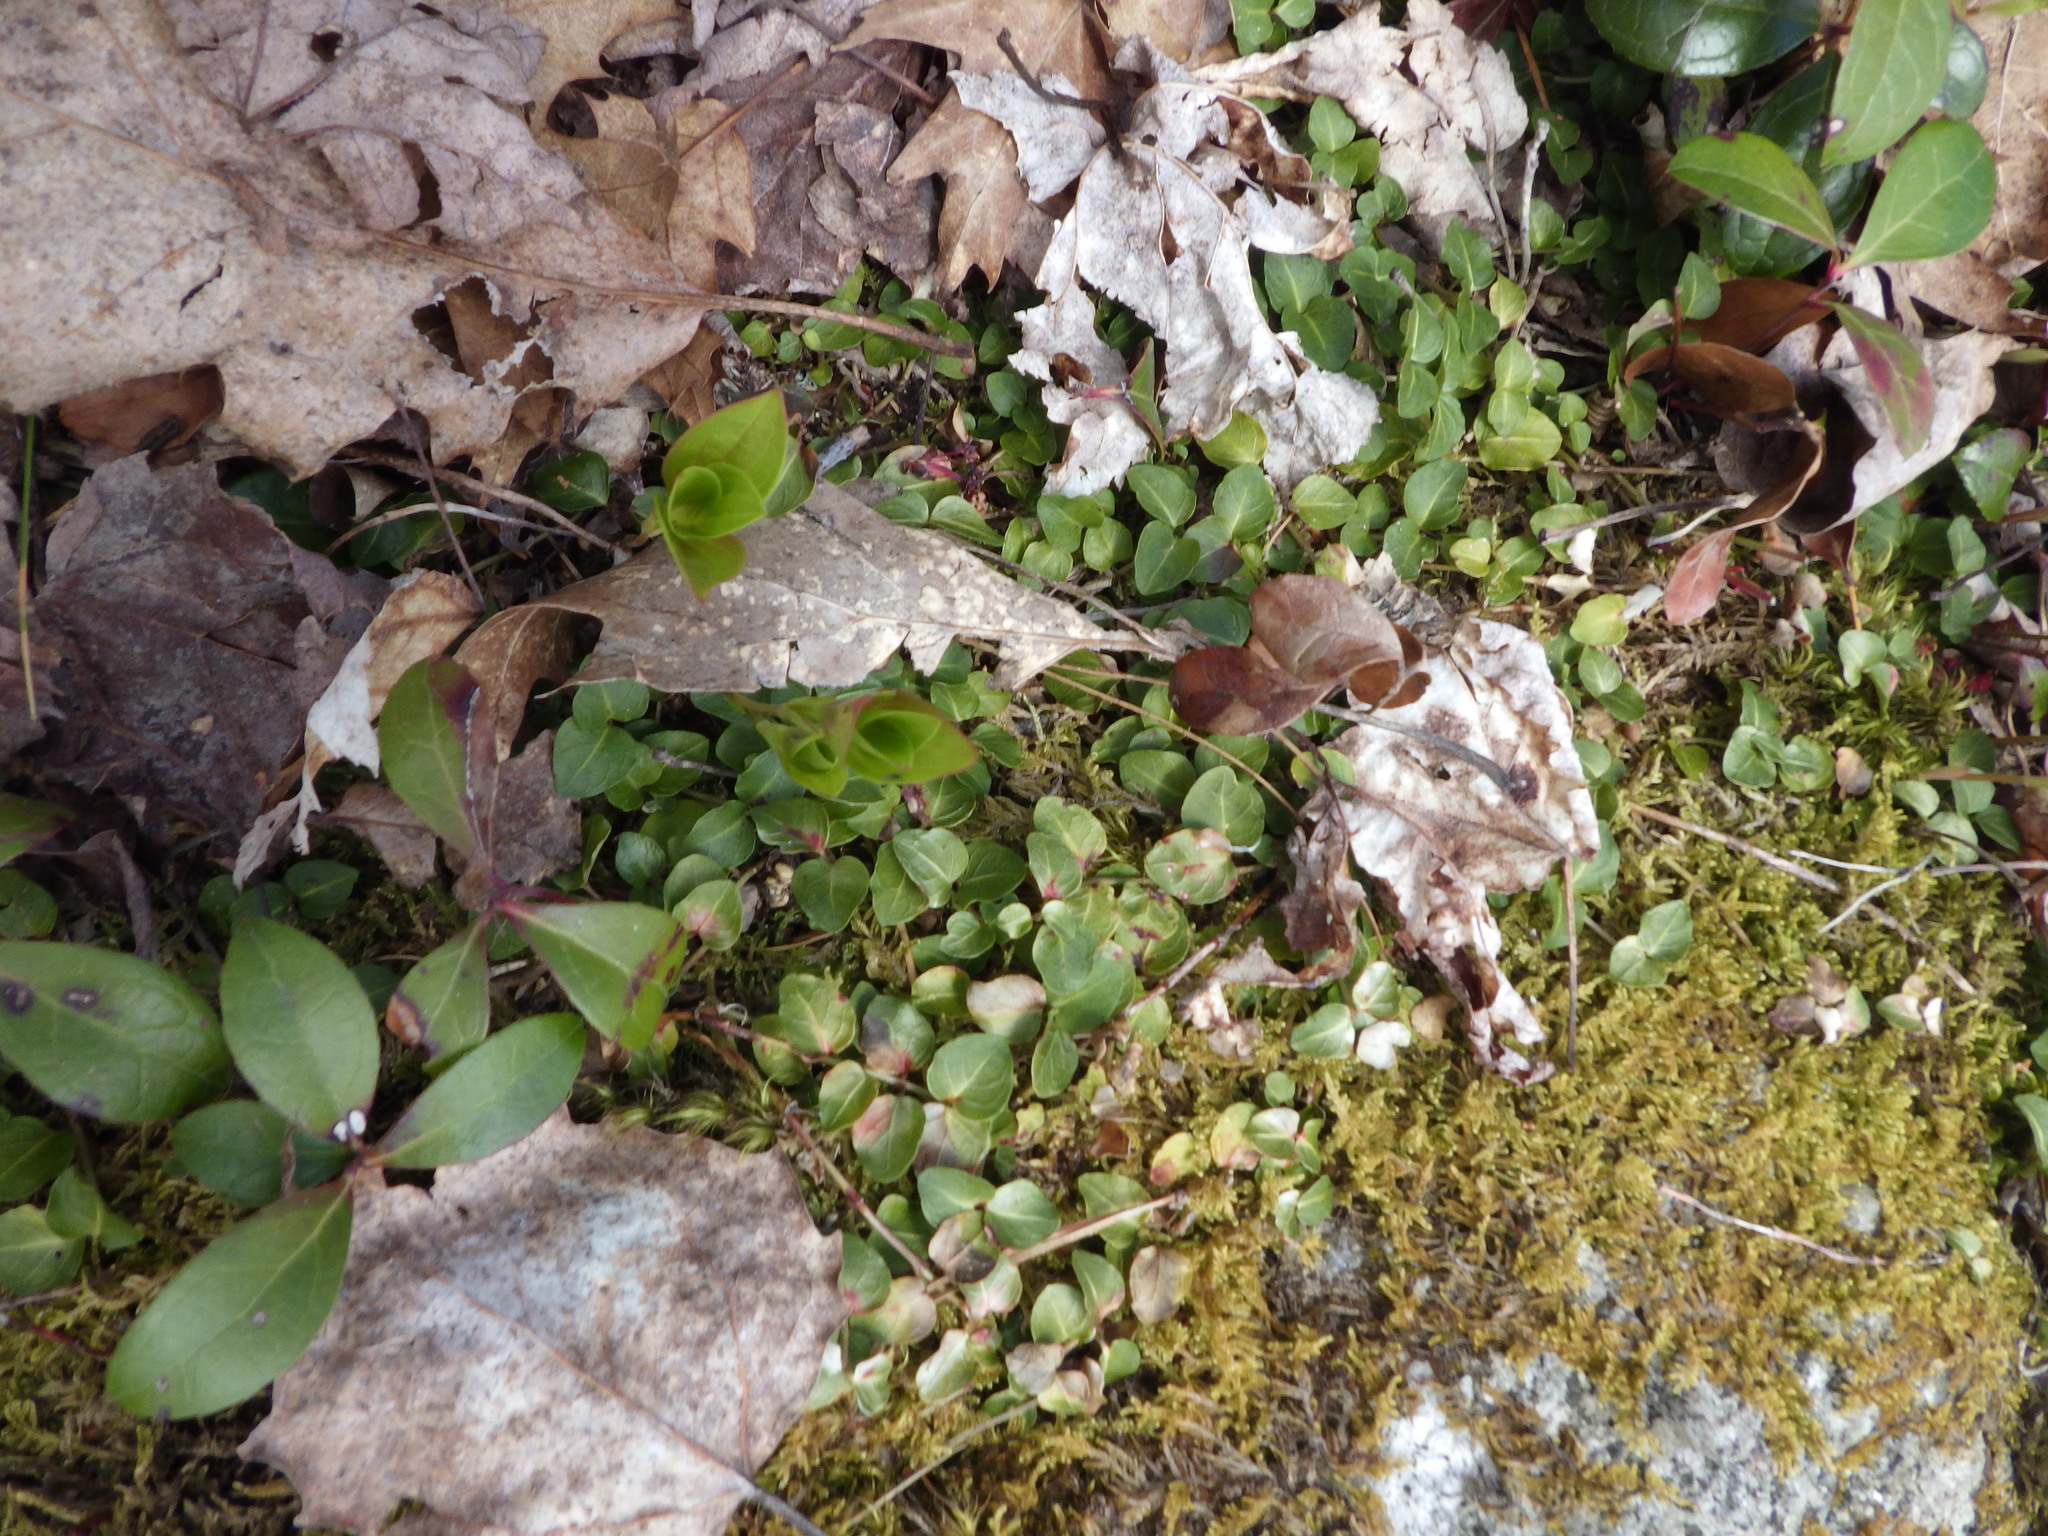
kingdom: Plantae
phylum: Tracheophyta
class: Magnoliopsida
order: Gentianales
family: Rubiaceae
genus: Mitchella
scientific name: Mitchella repens
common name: Partridge-berry
